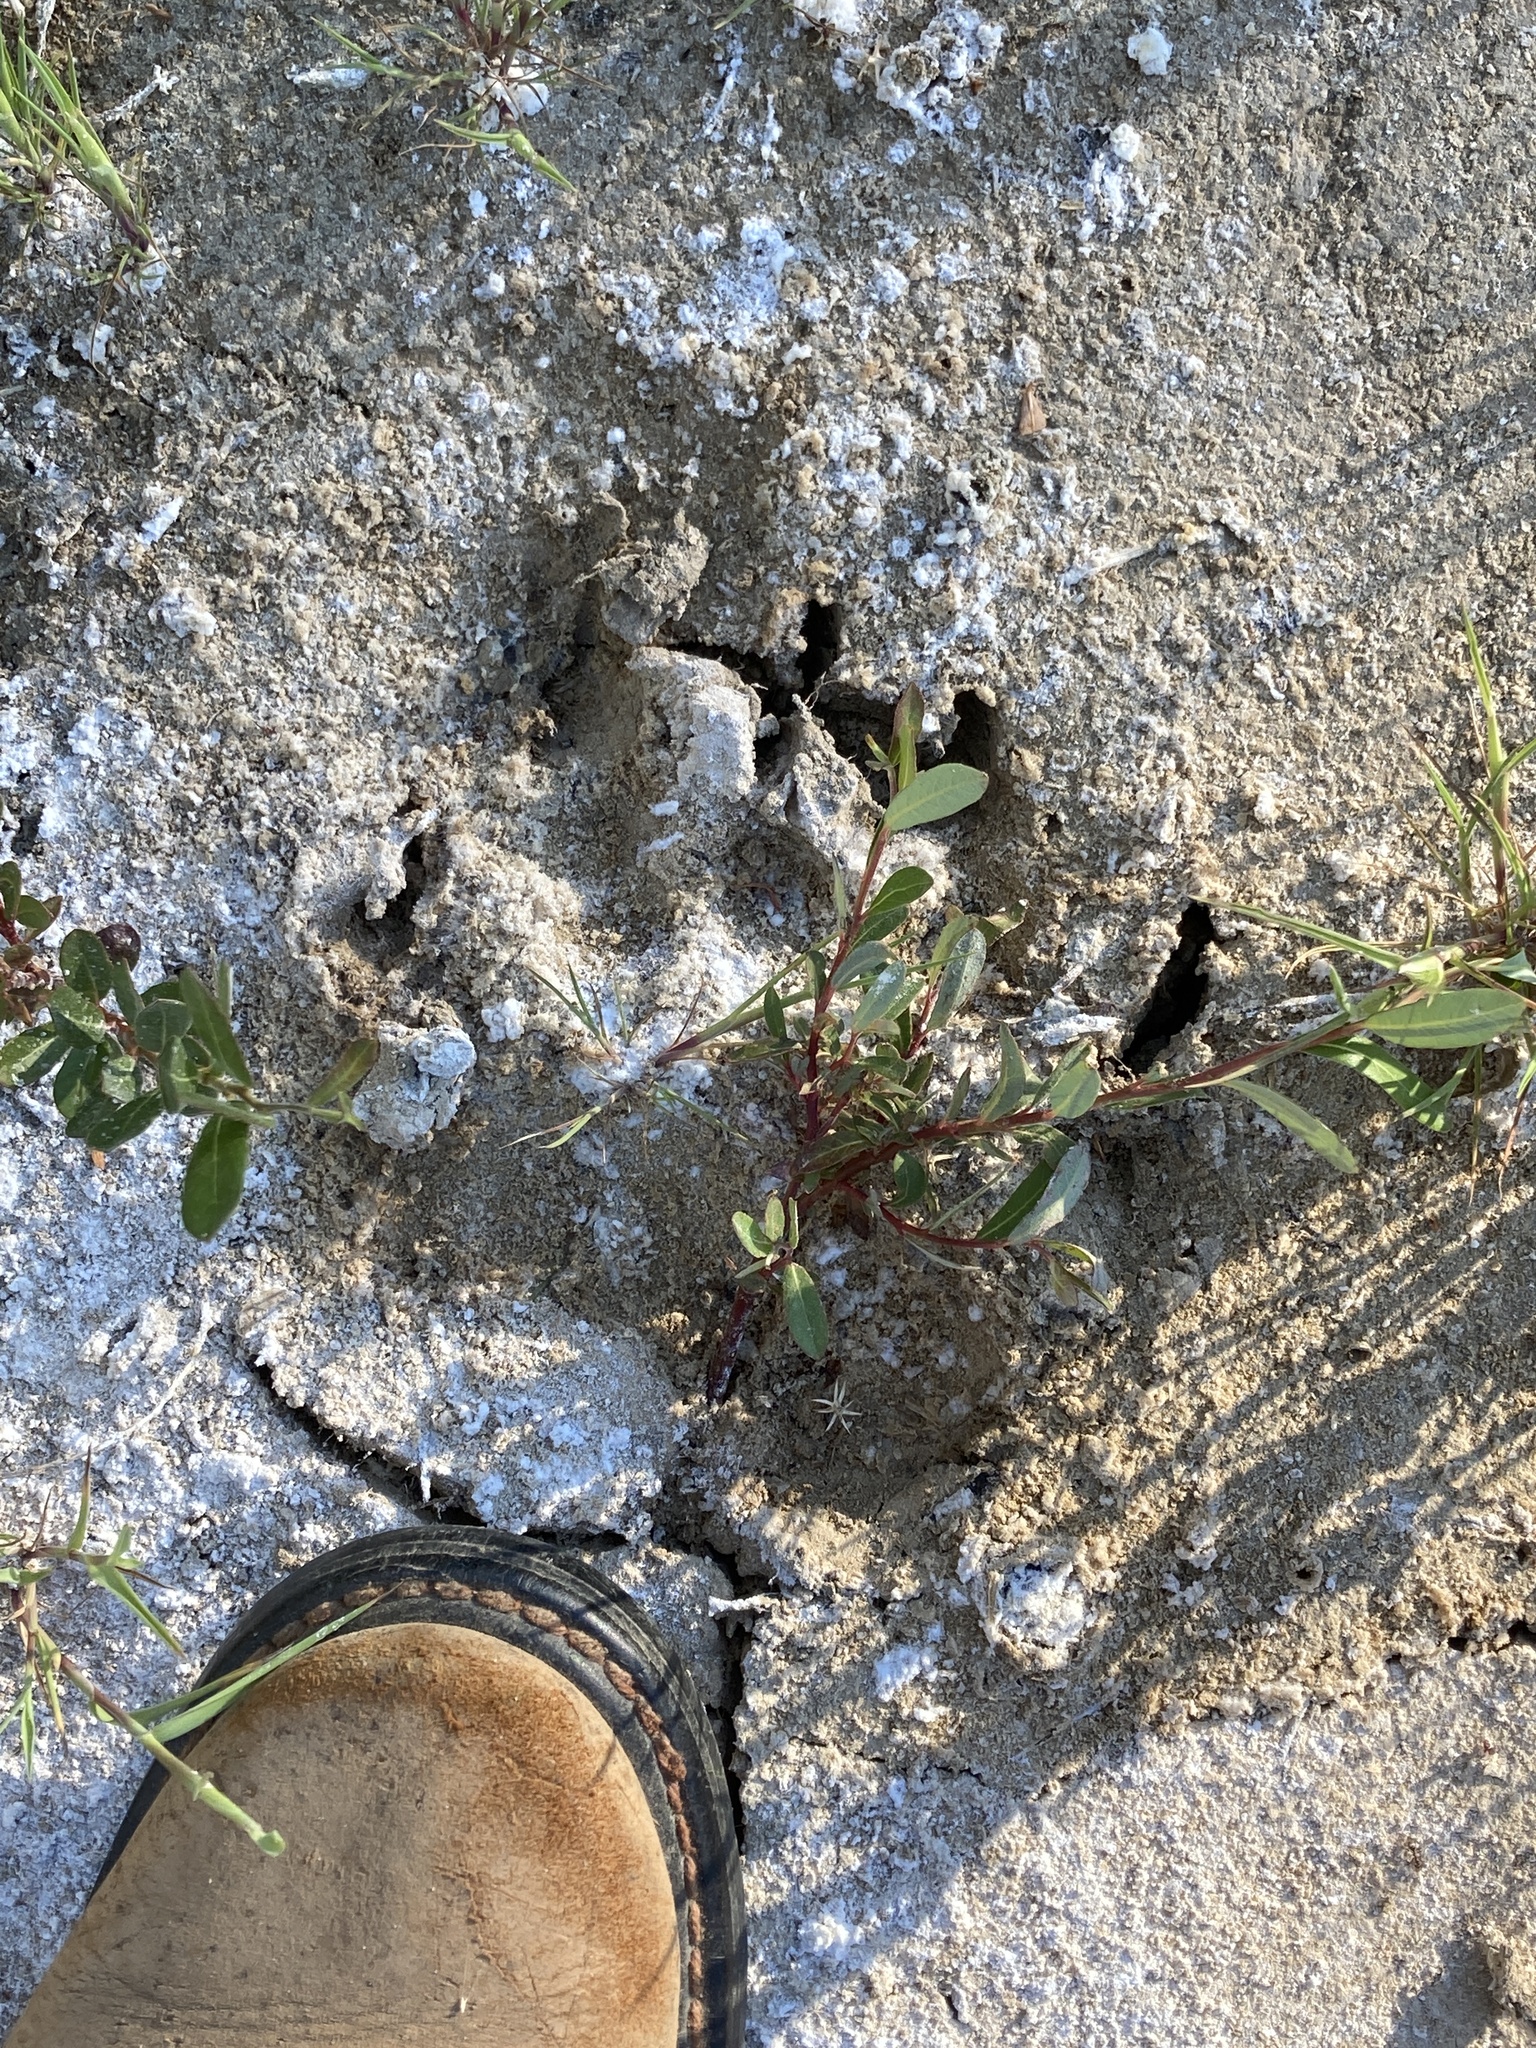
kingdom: Animalia
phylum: Chordata
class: Mammalia
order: Carnivora
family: Ursidae
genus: Ursus
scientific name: Ursus americanus
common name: American black bear
